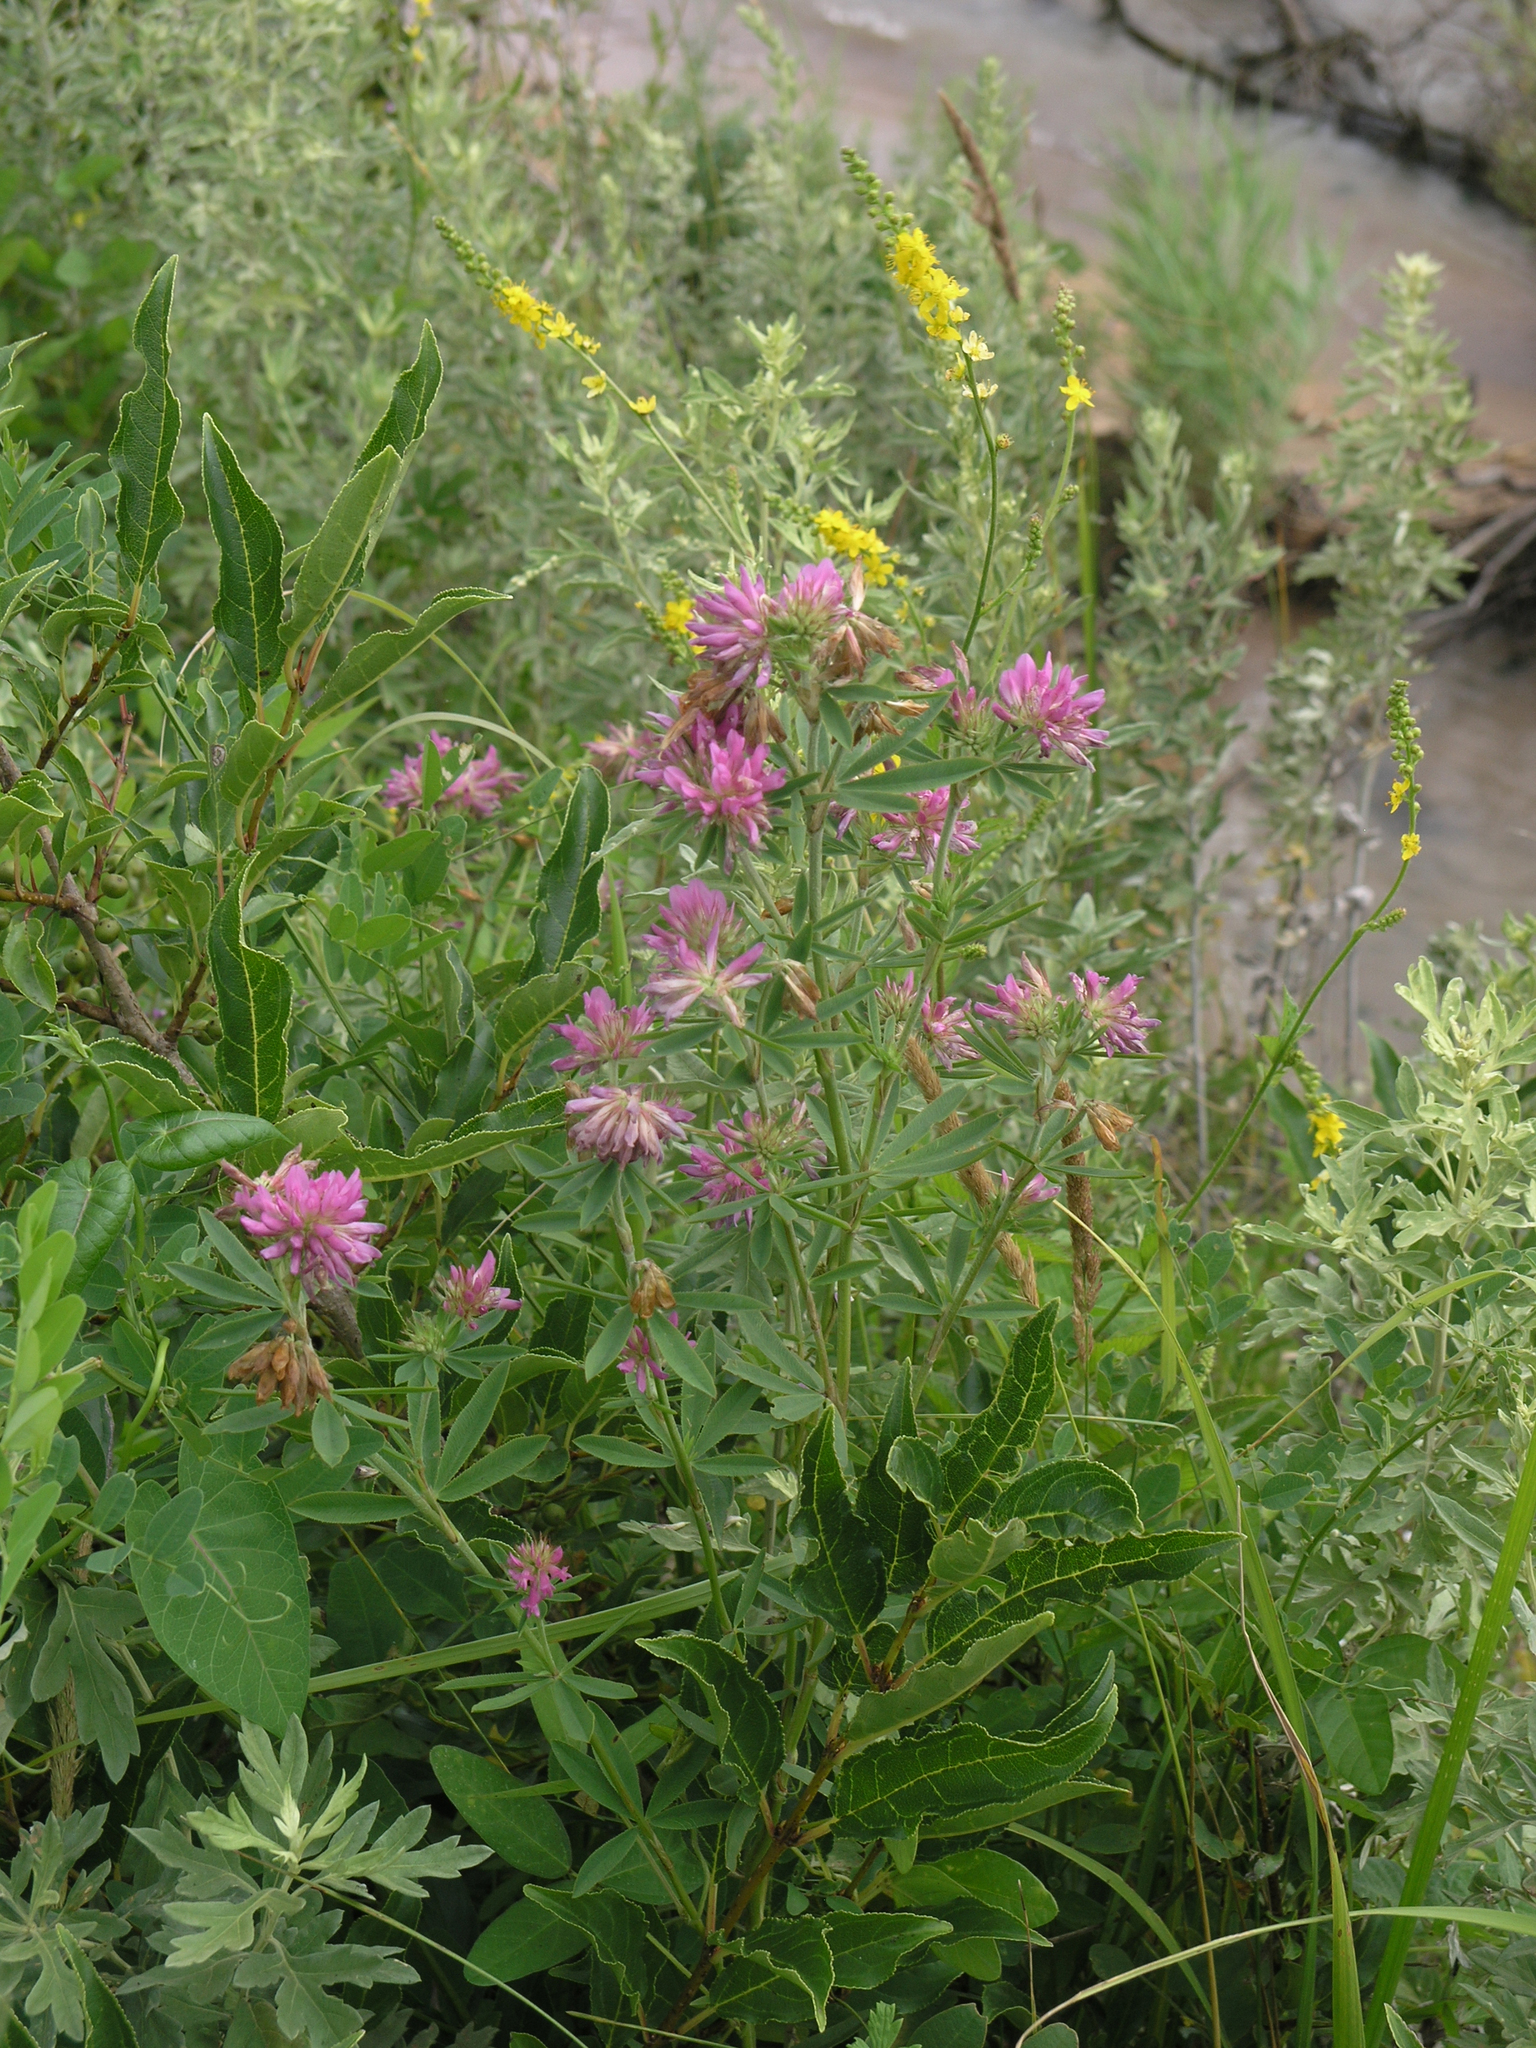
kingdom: Plantae
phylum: Tracheophyta
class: Magnoliopsida
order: Fabales
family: Fabaceae
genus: Trifolium
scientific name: Trifolium lupinaster
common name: Lupine clover
